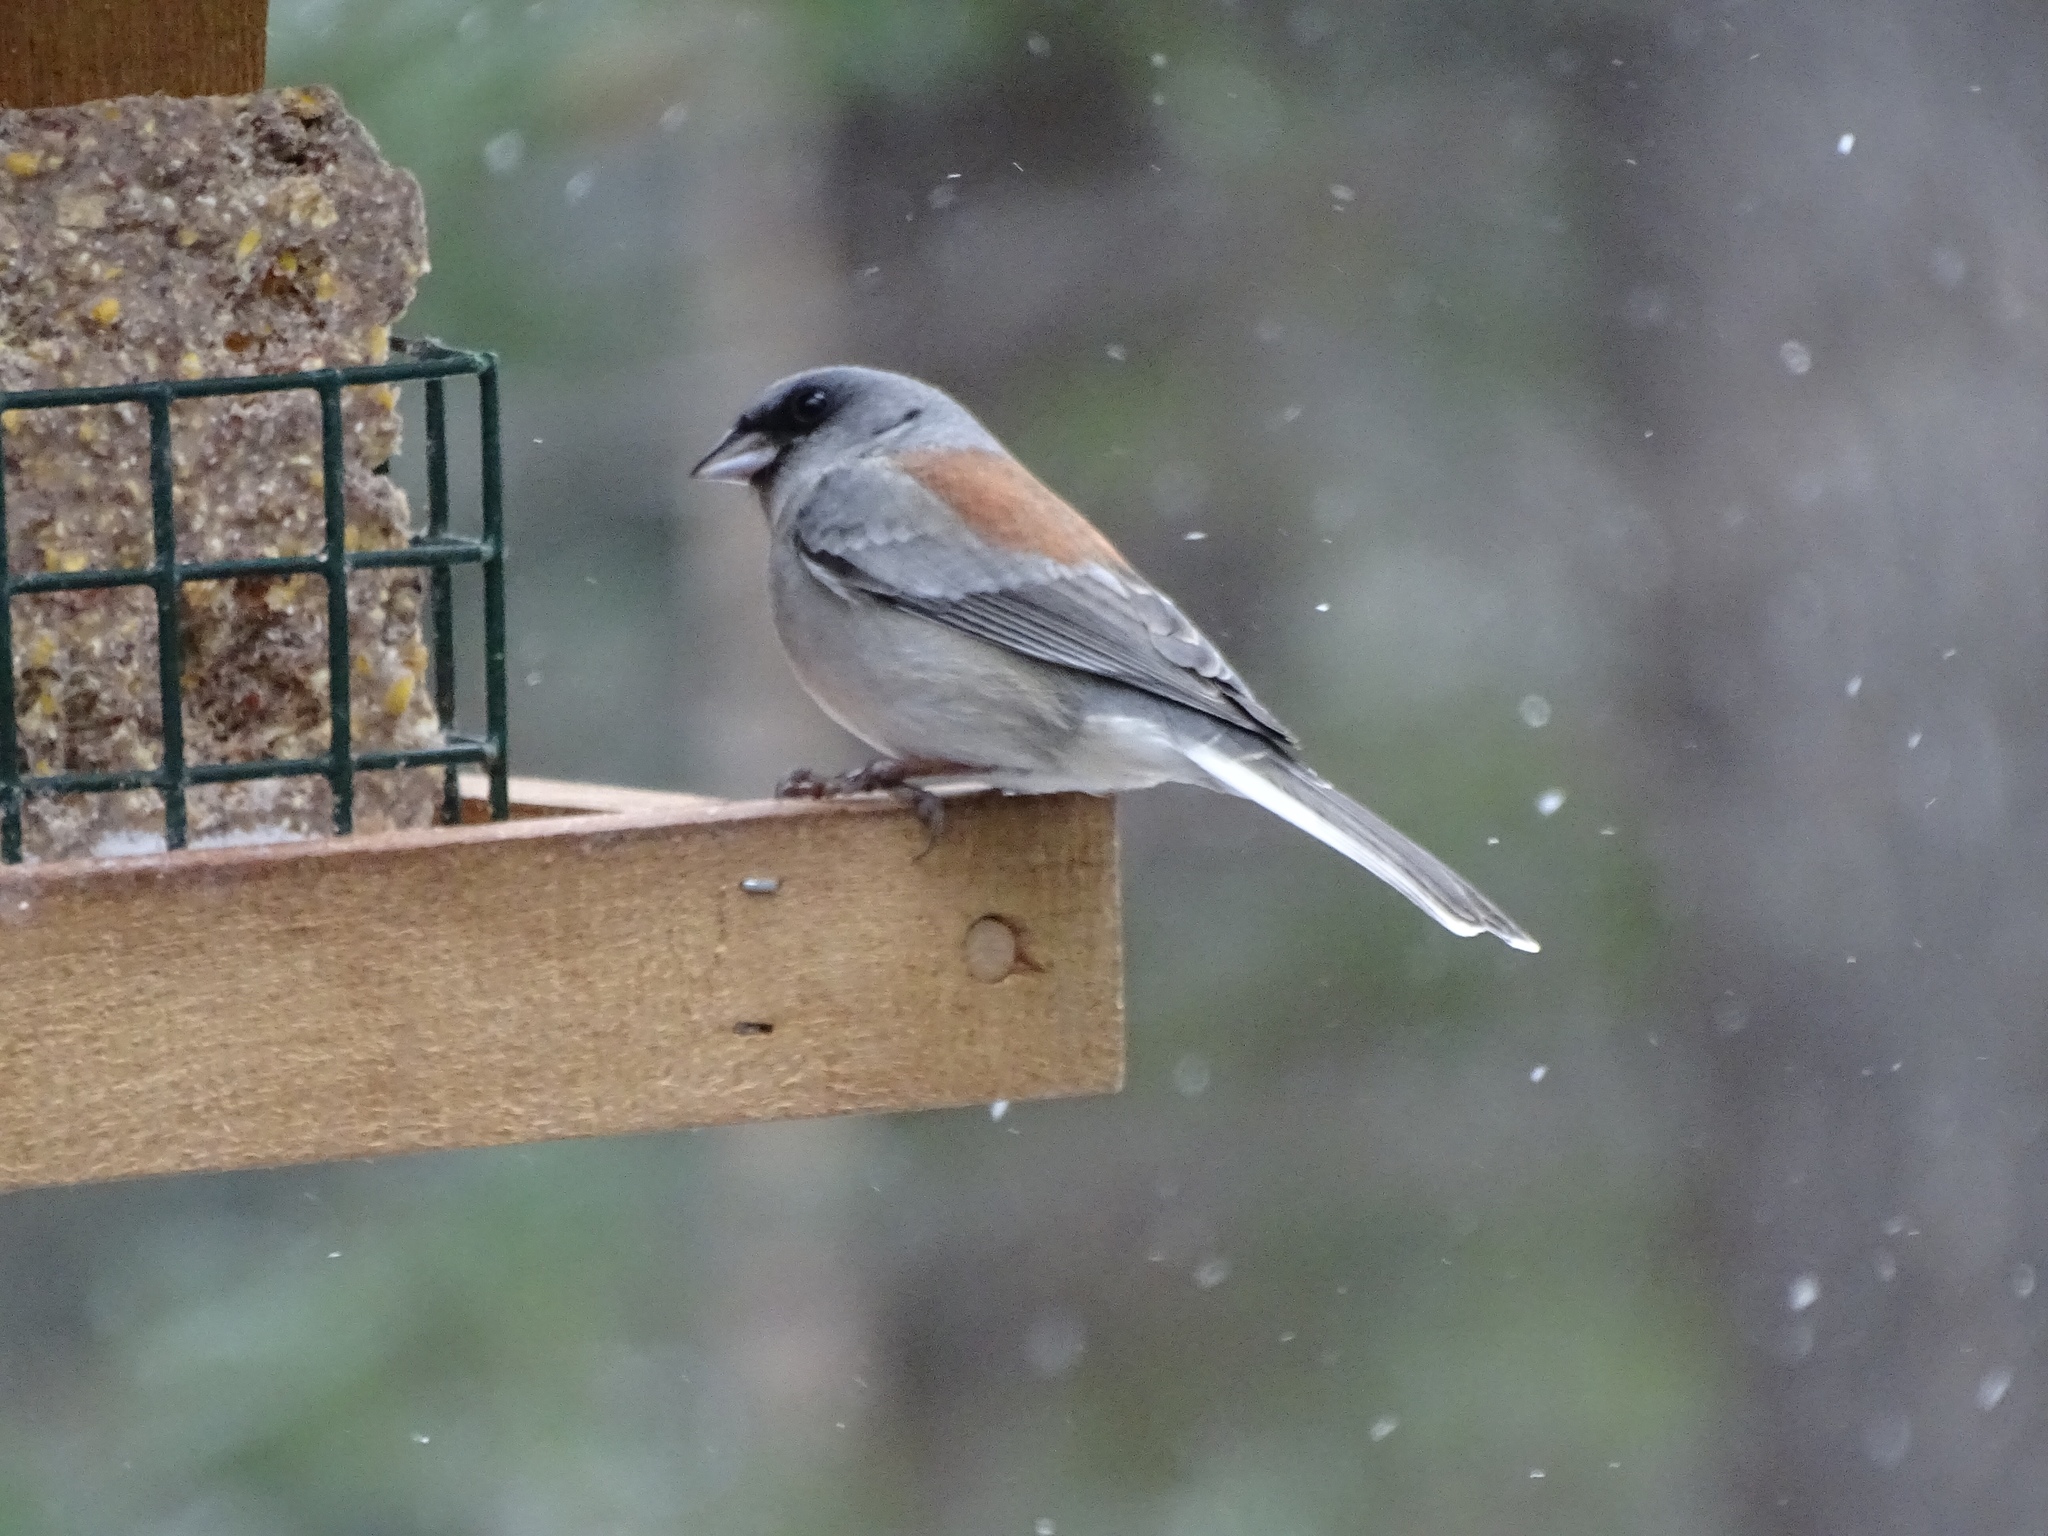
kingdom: Animalia
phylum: Chordata
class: Aves
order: Passeriformes
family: Passerellidae
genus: Junco
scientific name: Junco hyemalis
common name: Dark-eyed junco
